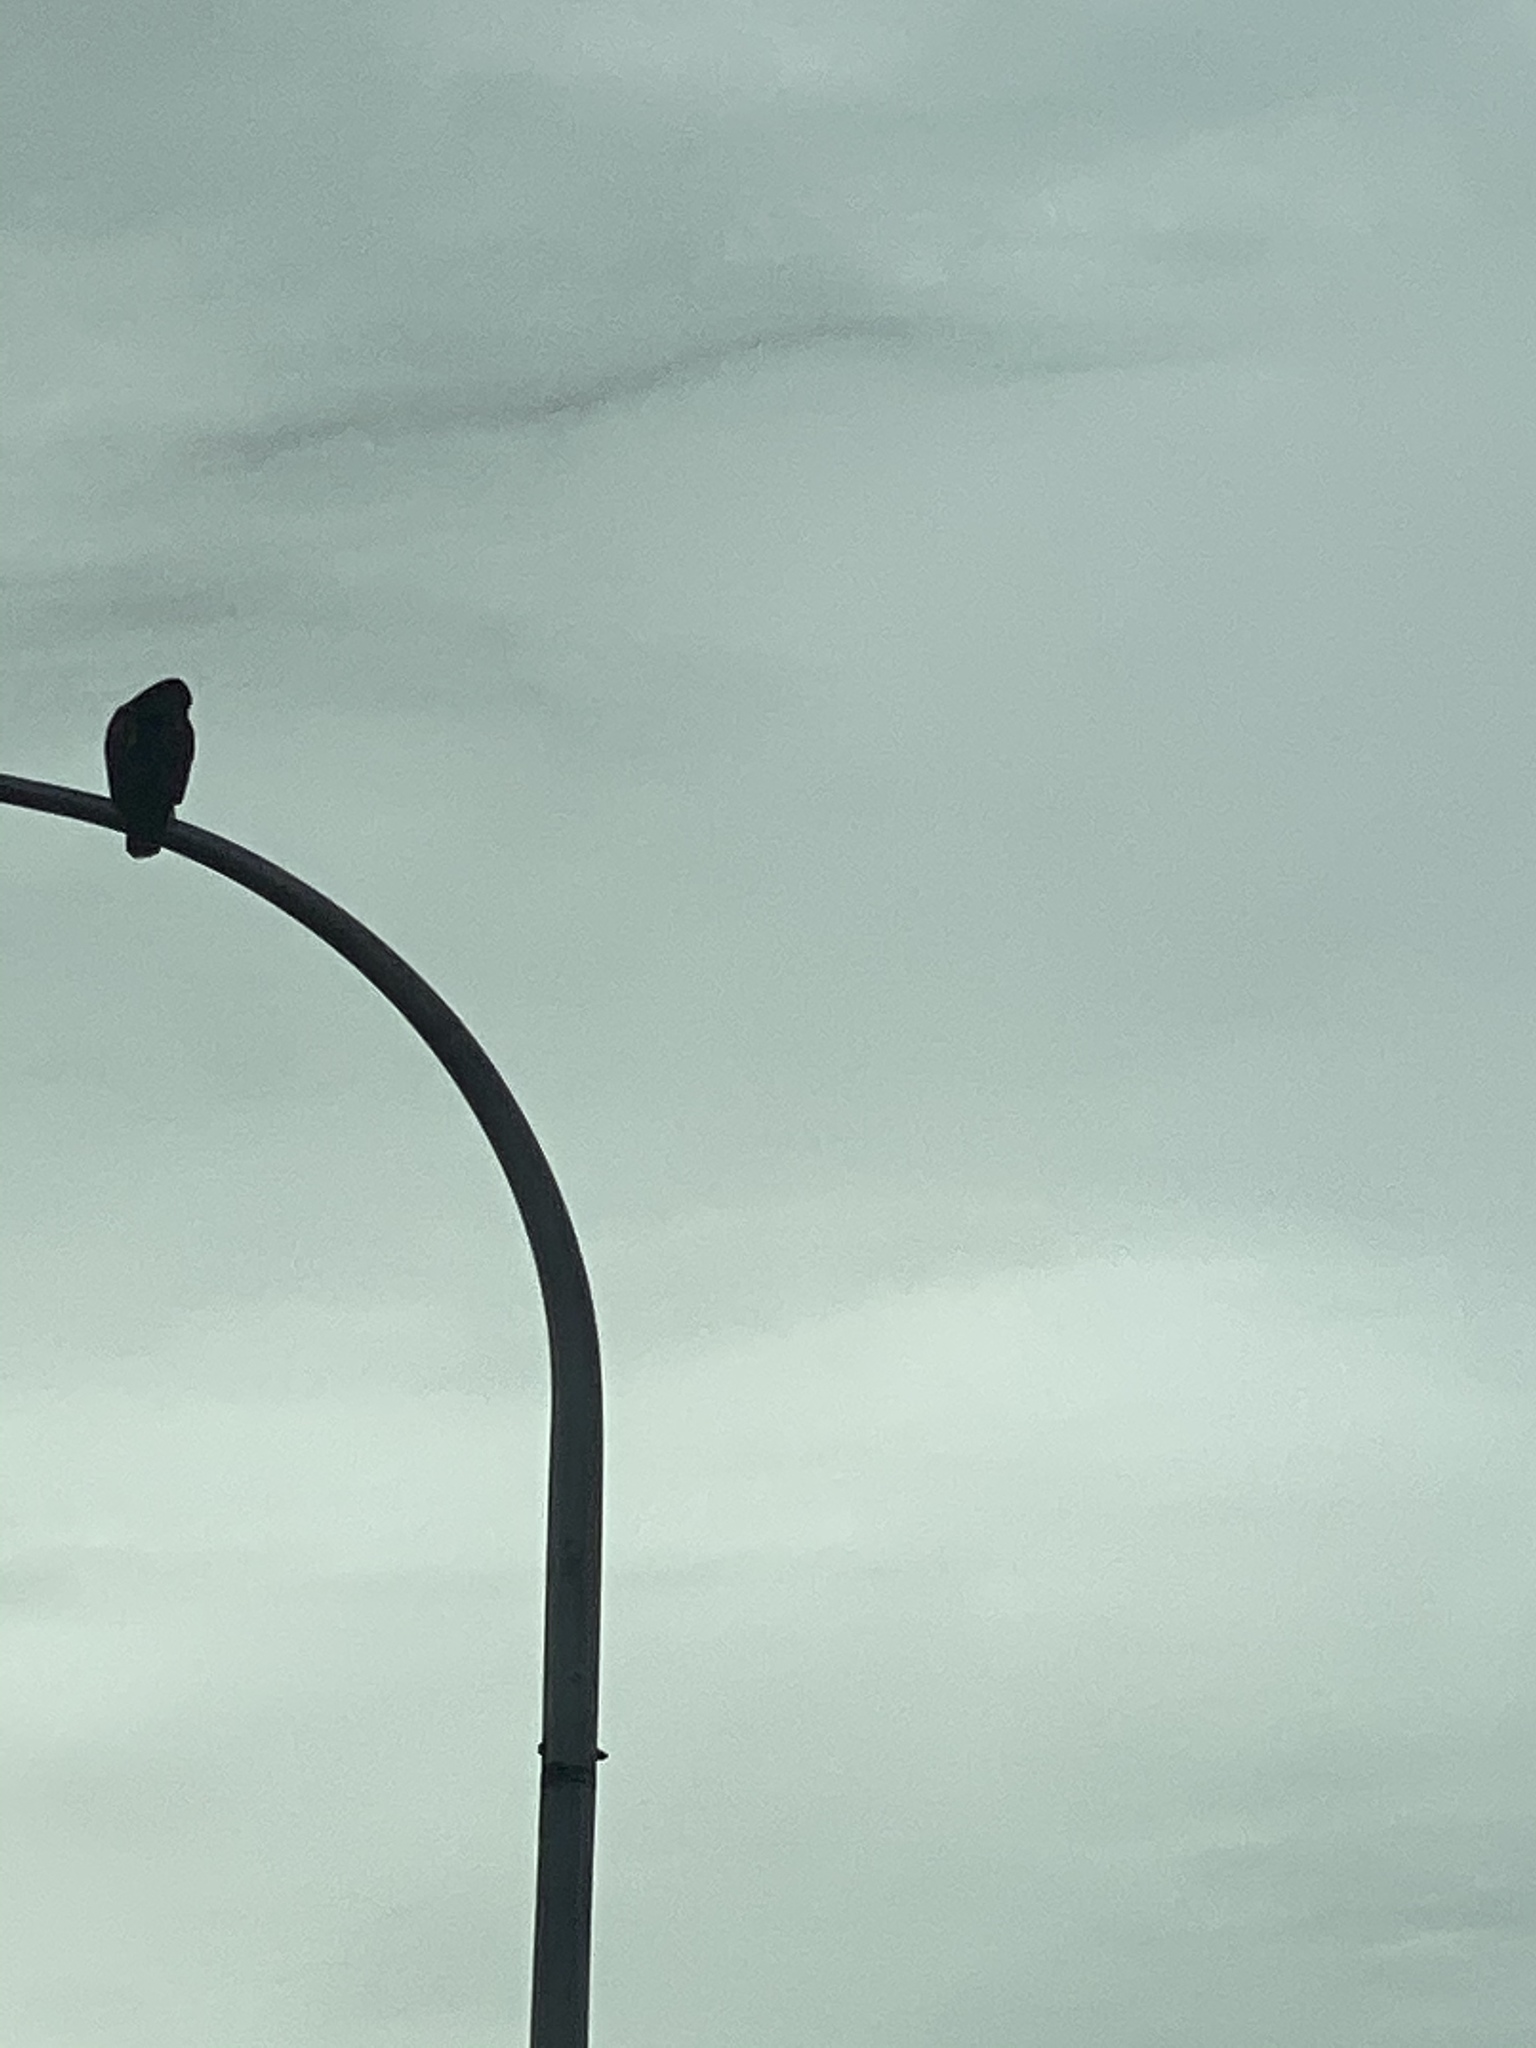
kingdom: Animalia
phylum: Chordata
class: Aves
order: Accipitriformes
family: Accipitridae
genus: Buteo
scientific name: Buteo jamaicensis
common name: Red-tailed hawk
